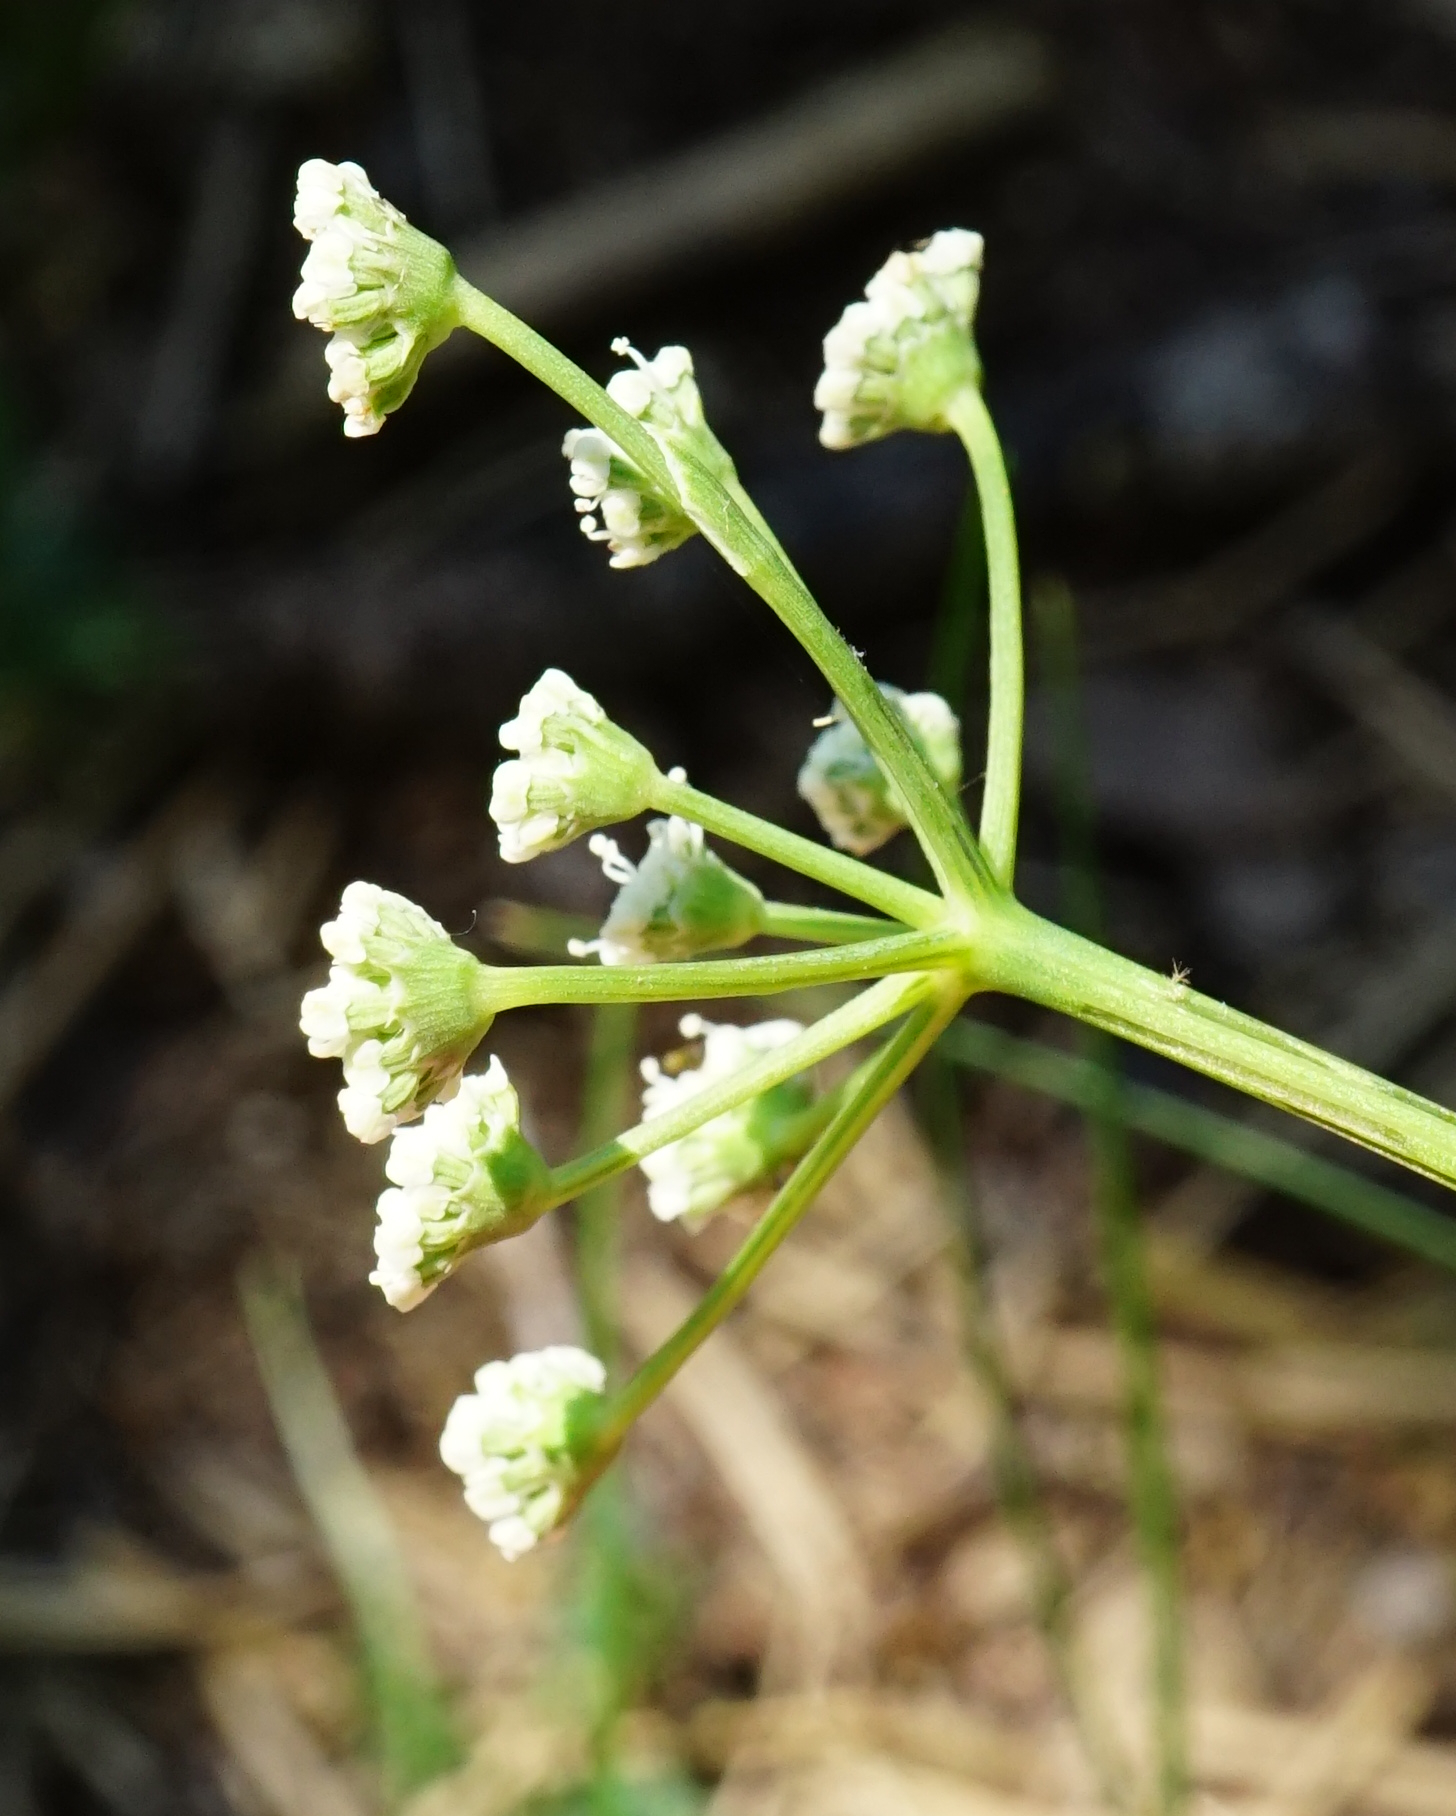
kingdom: Plantae
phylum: Tracheophyta
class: Magnoliopsida
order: Apiales
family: Apiaceae
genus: Hippomarathrum
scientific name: Hippomarathrum
